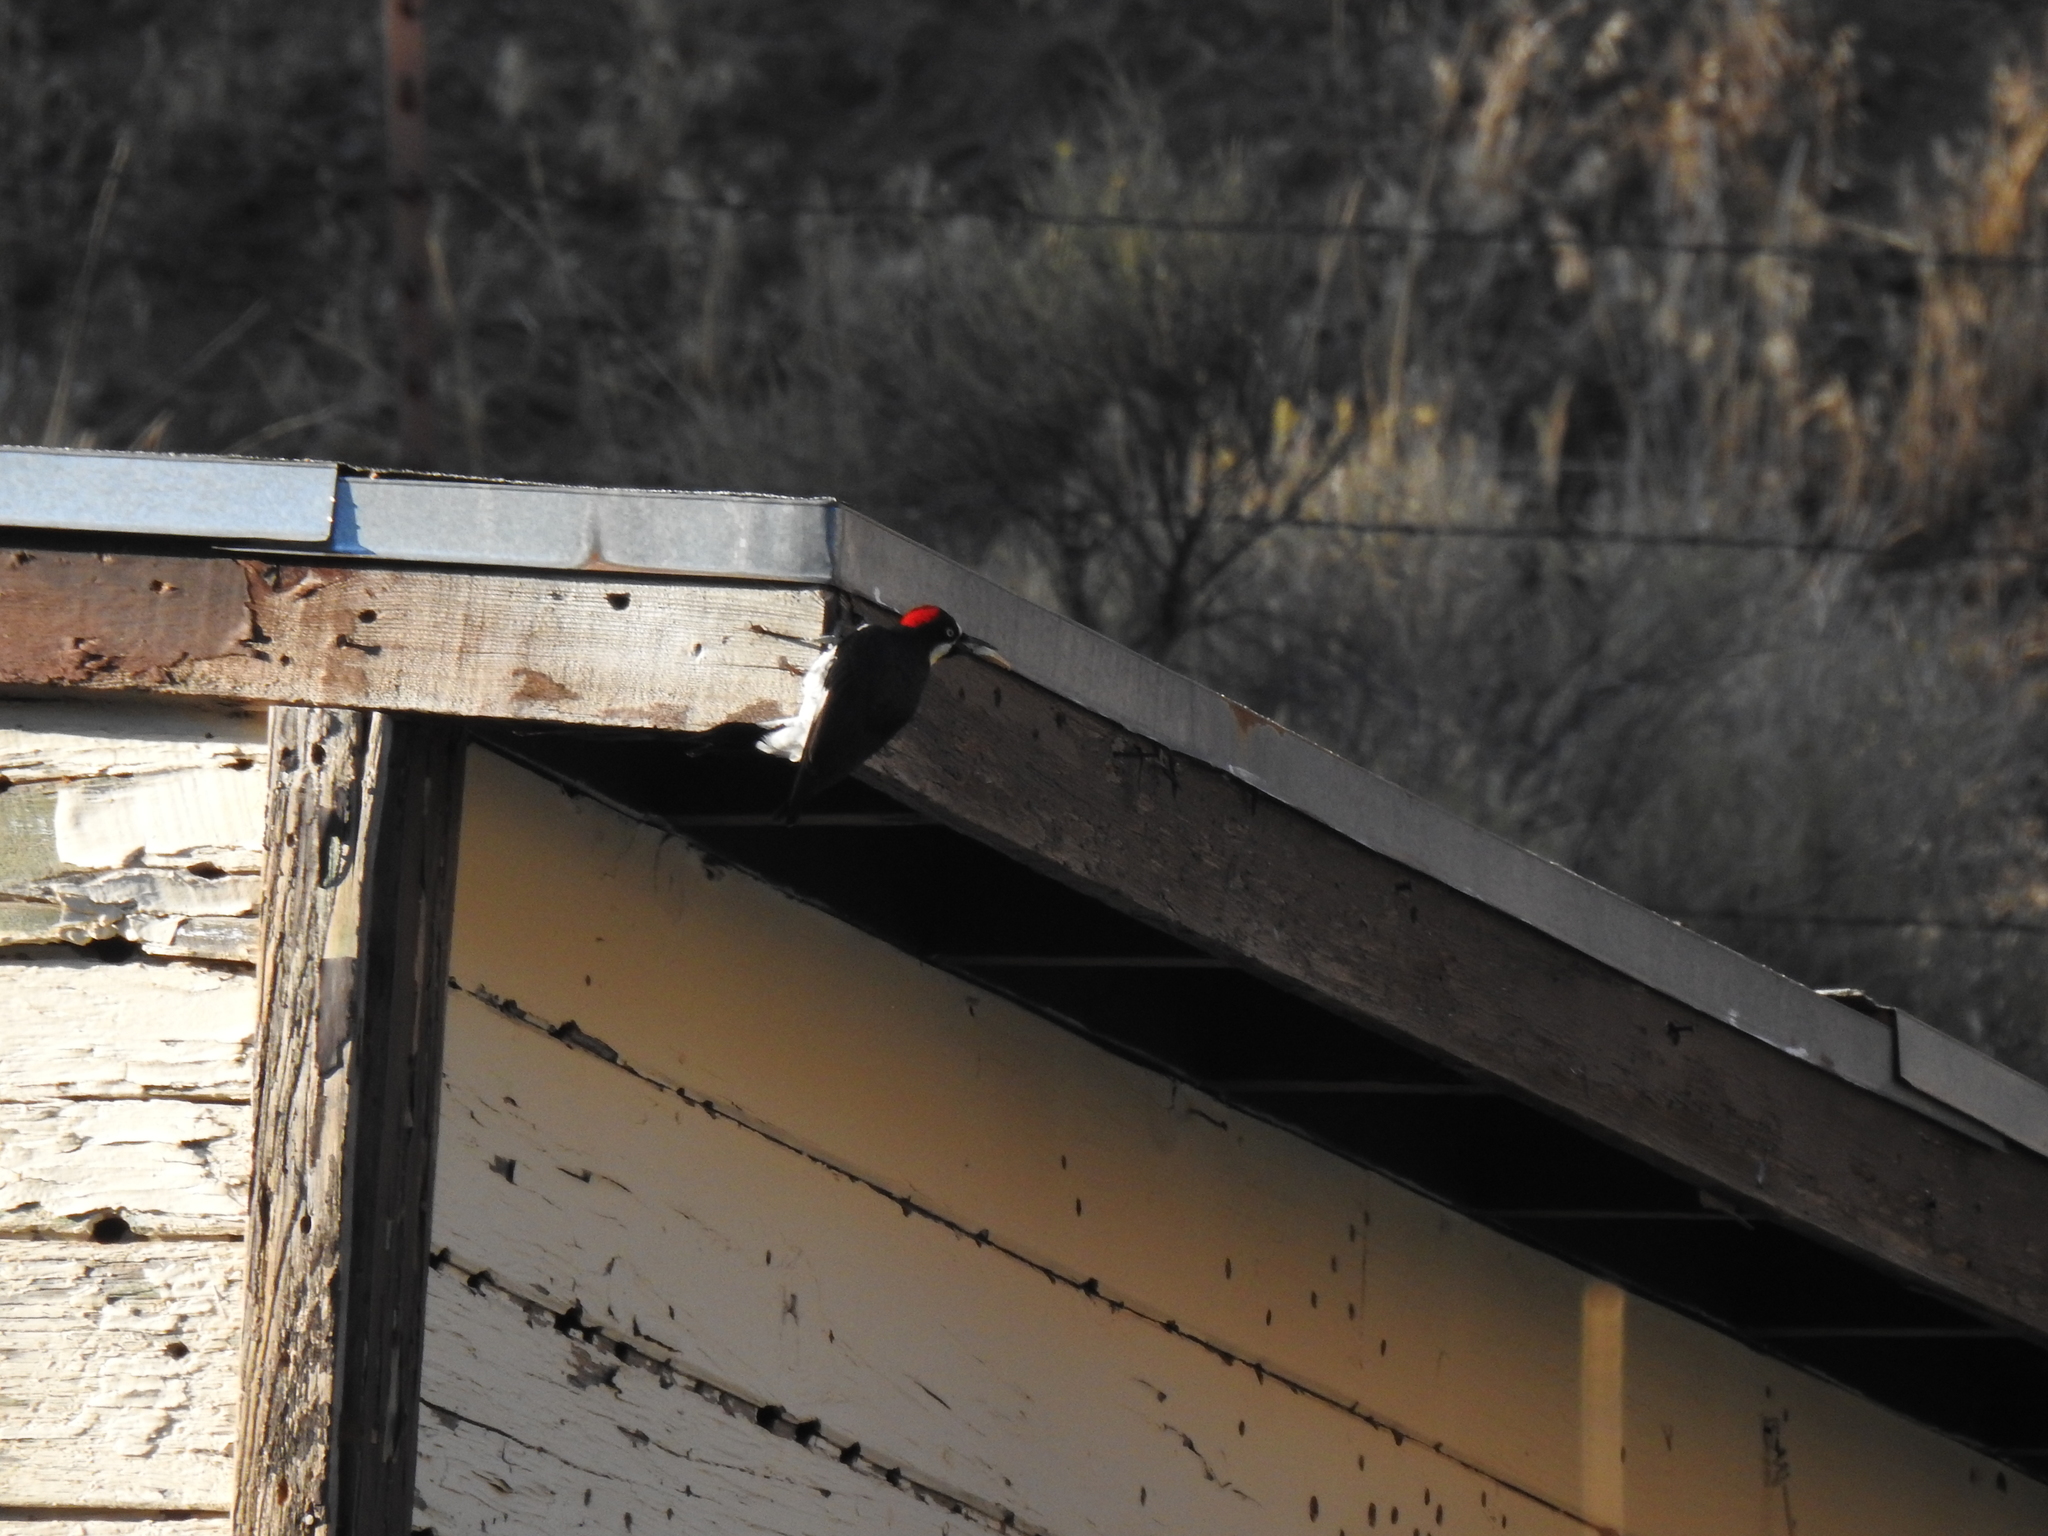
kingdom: Animalia
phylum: Chordata
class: Aves
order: Piciformes
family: Picidae
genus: Melanerpes
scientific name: Melanerpes formicivorus
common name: Acorn woodpecker
